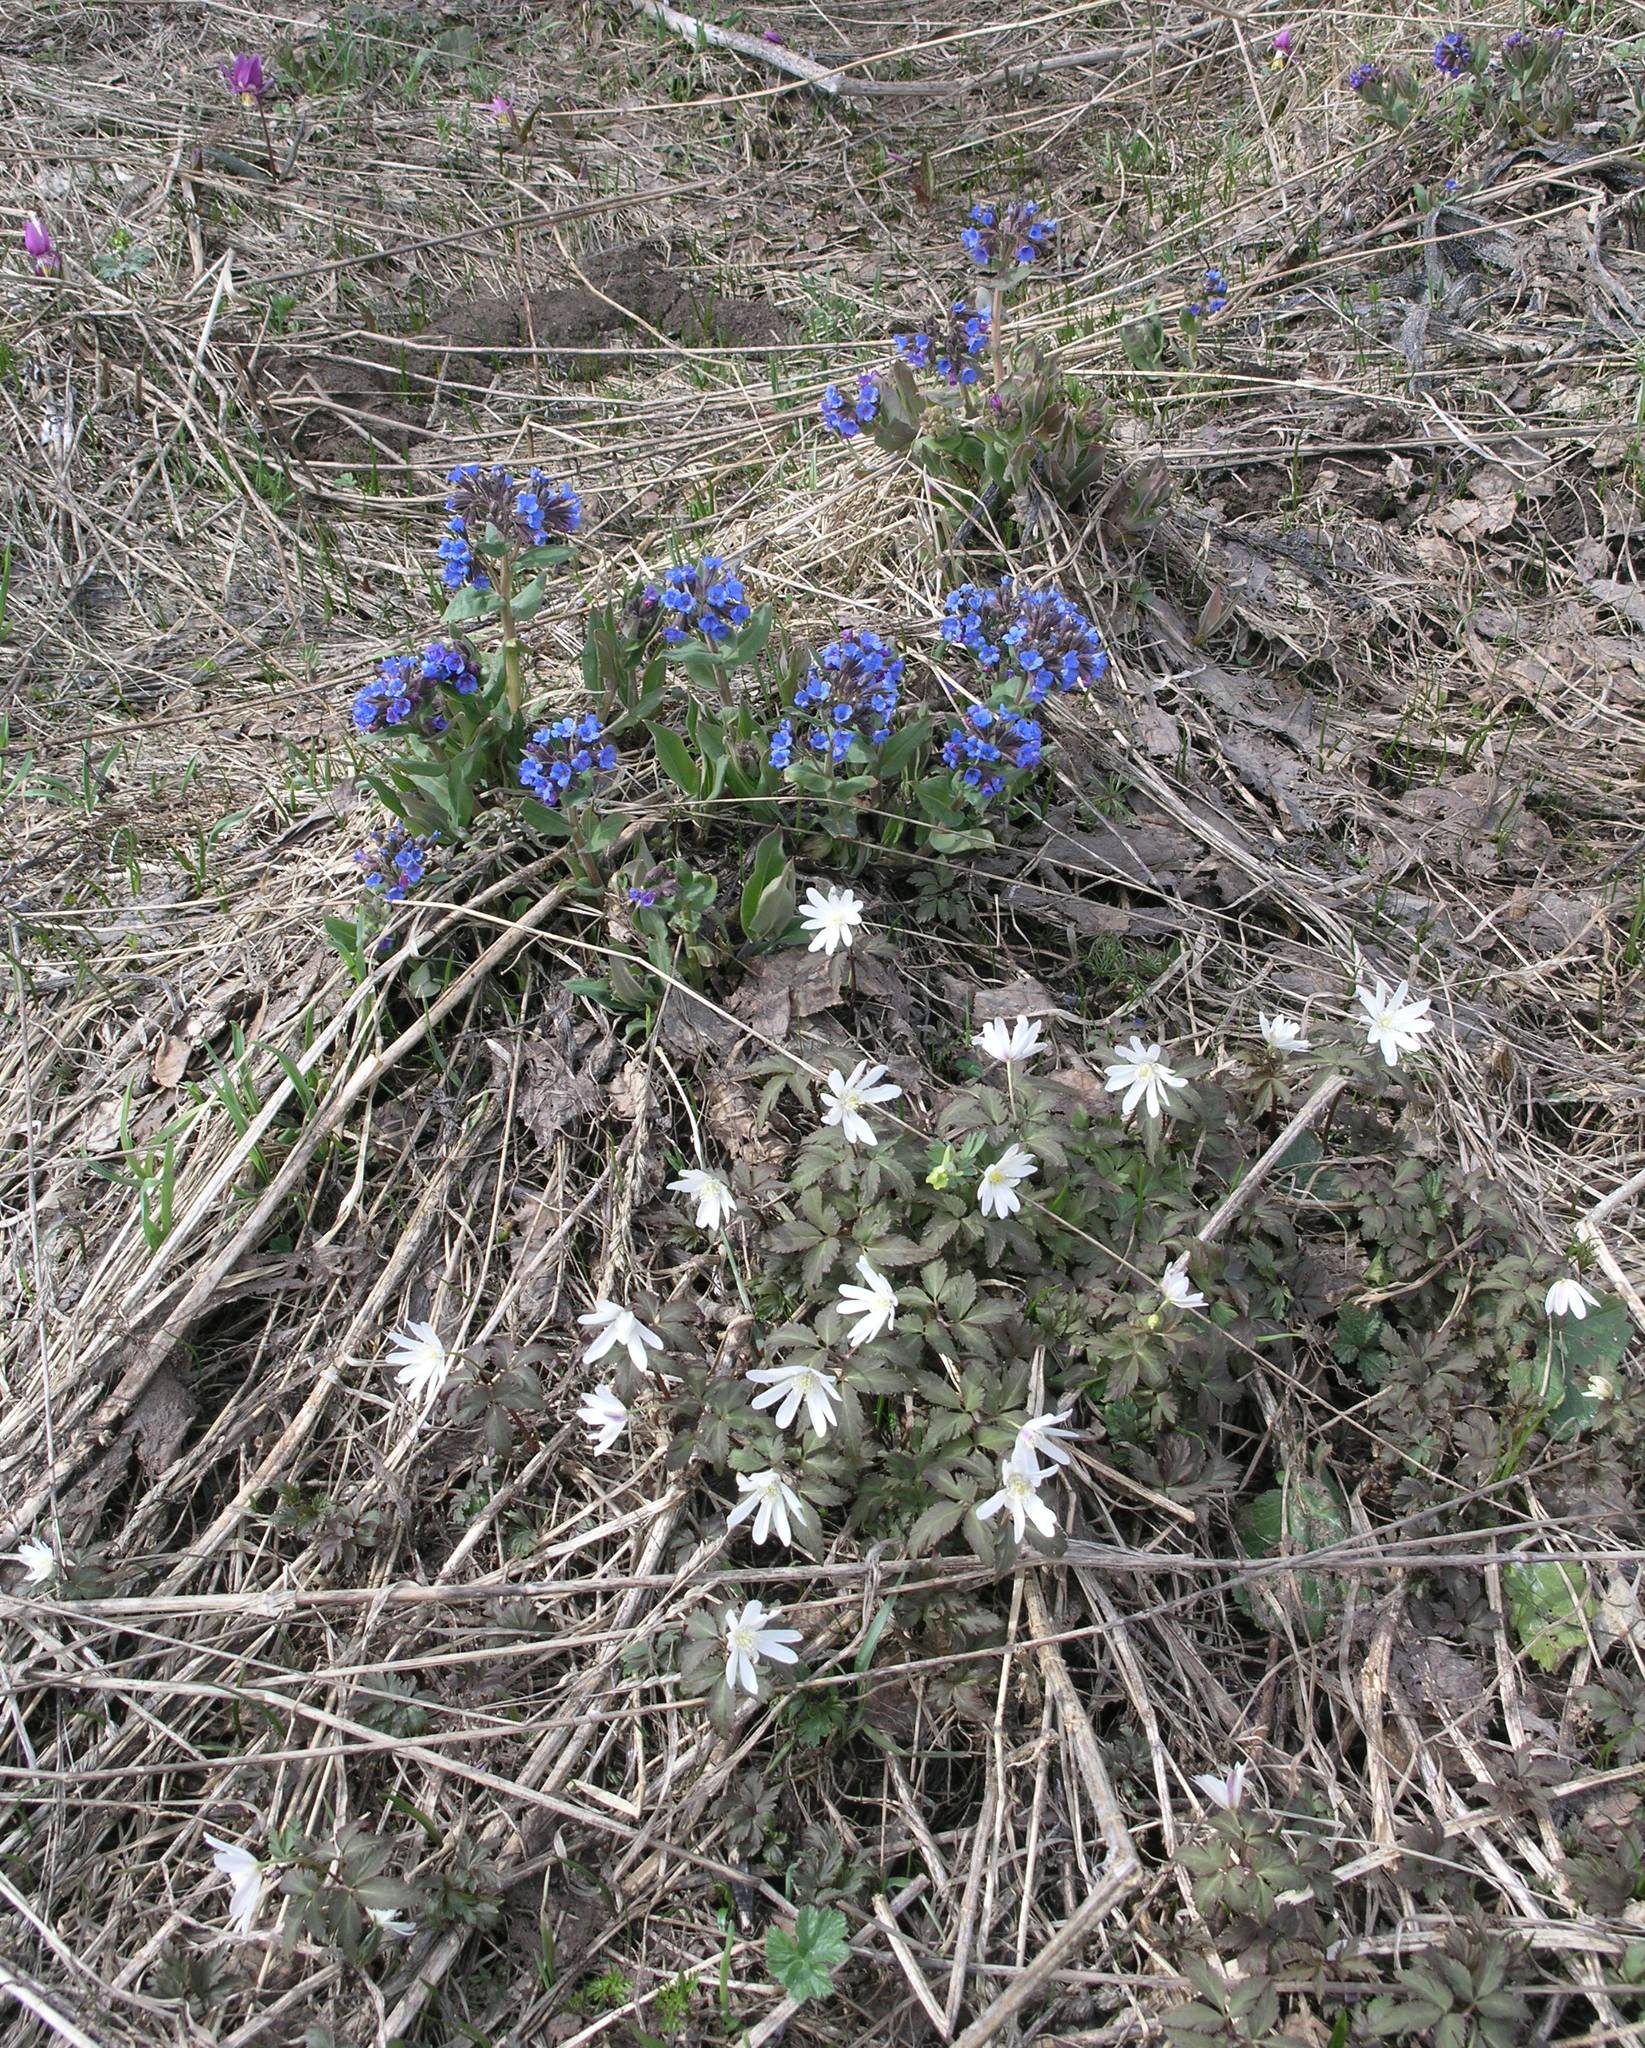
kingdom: Plantae
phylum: Tracheophyta
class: Magnoliopsida
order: Boraginales
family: Boraginaceae
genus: Pulmonaria
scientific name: Pulmonaria mollis
